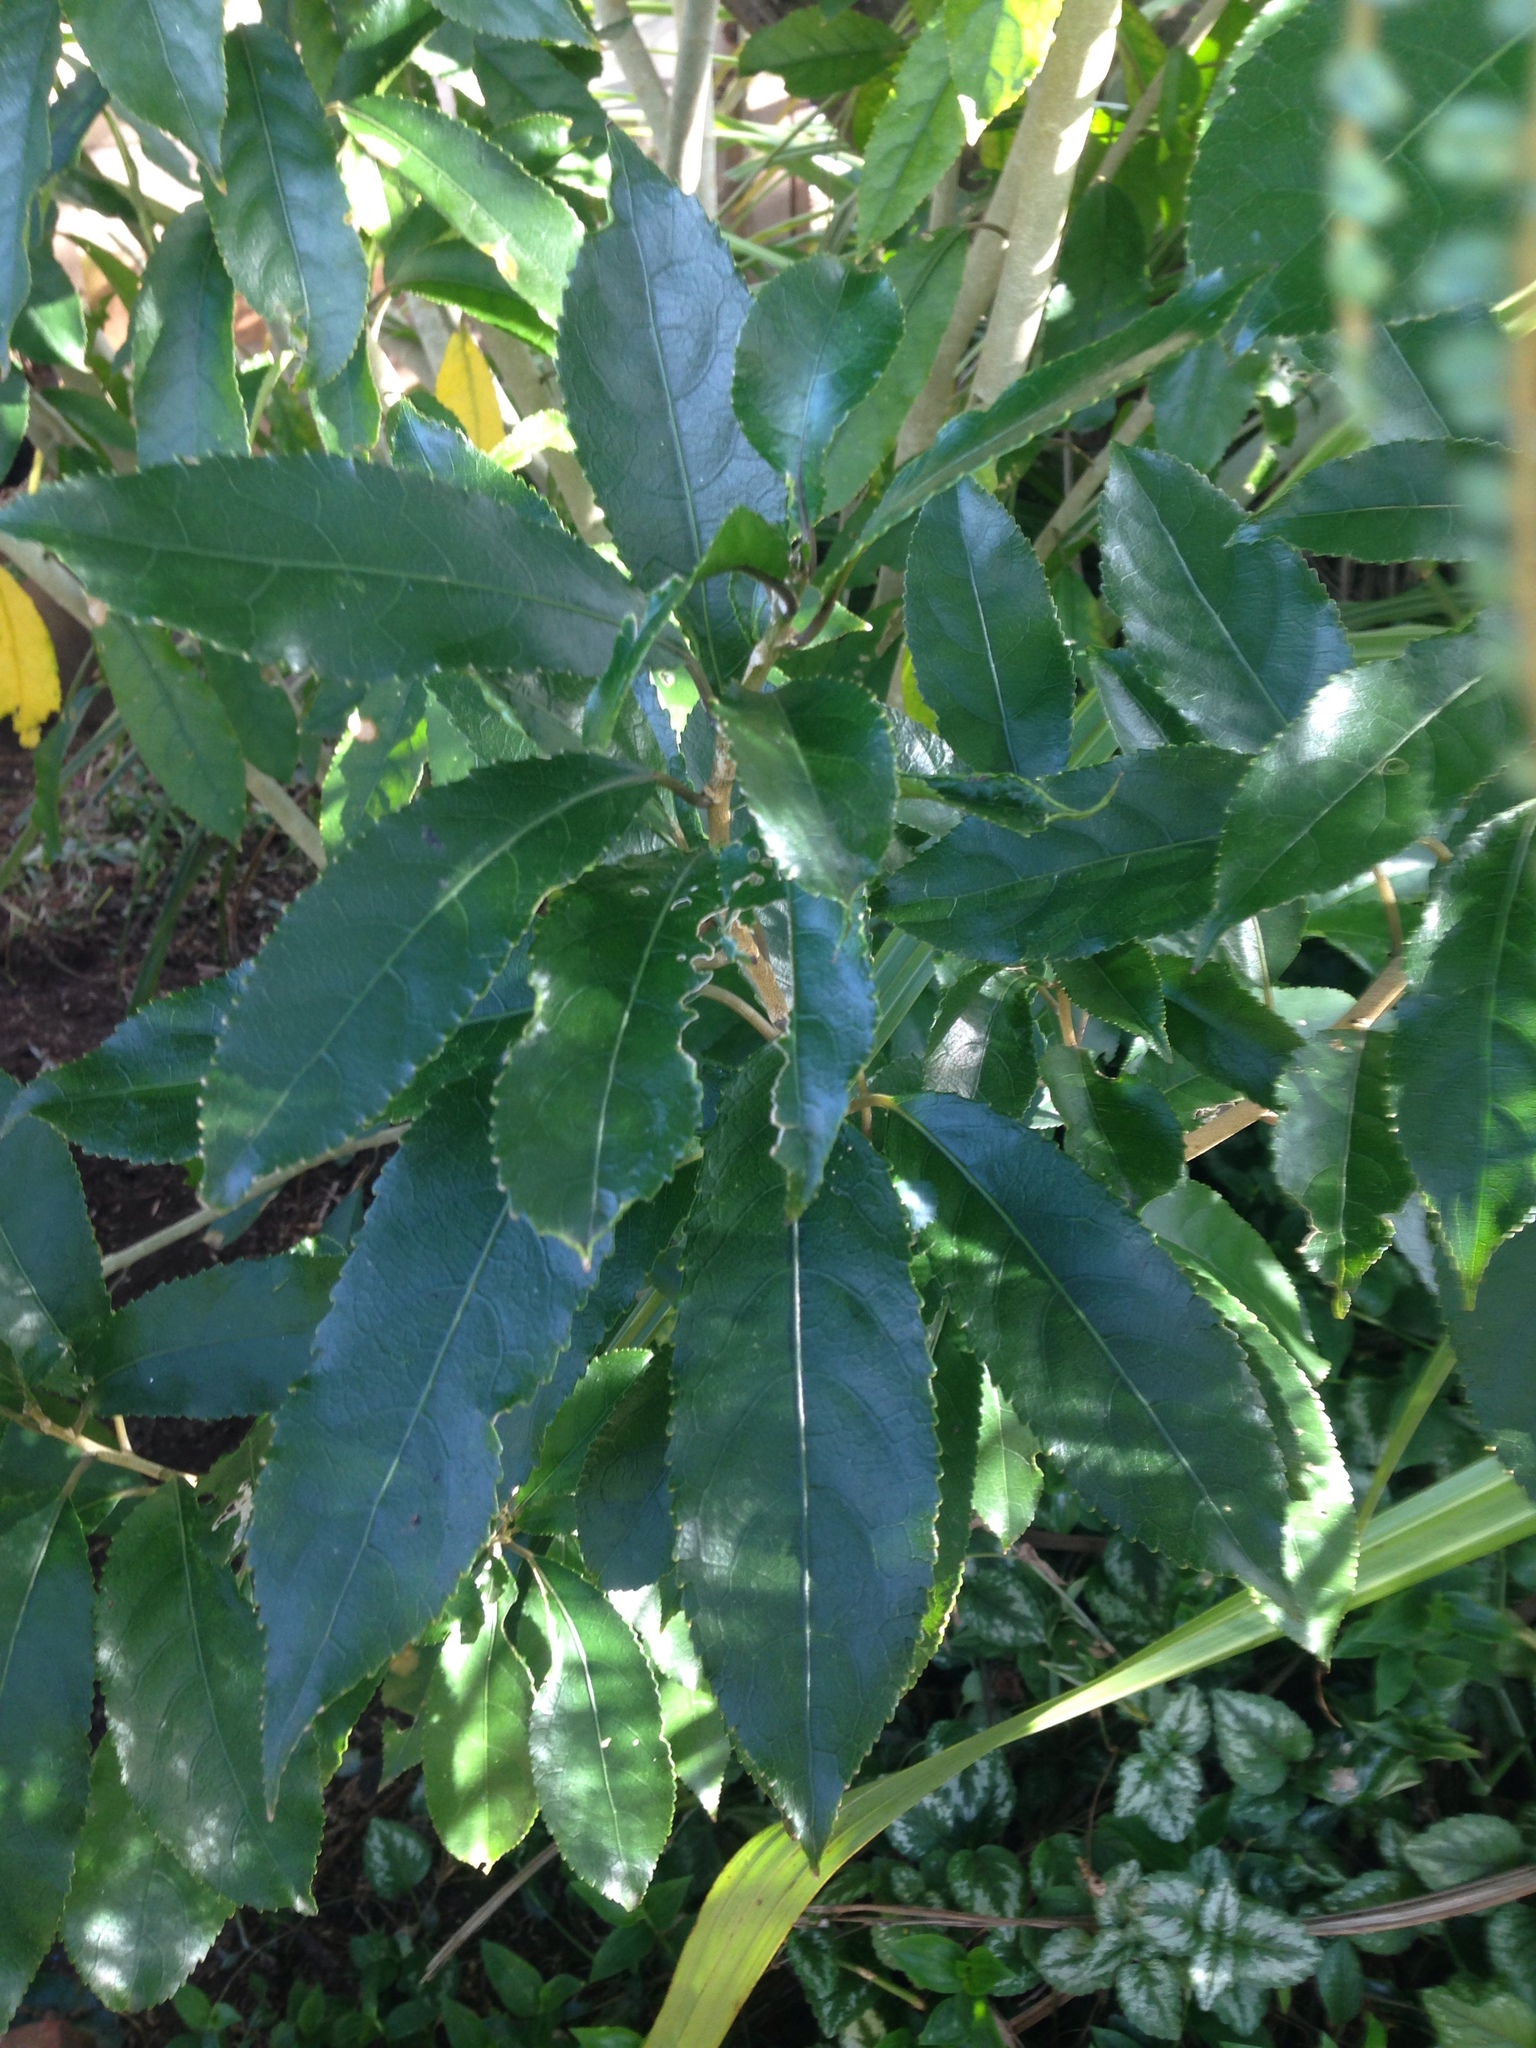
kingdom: Plantae
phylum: Tracheophyta
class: Magnoliopsida
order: Malpighiales
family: Violaceae
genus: Melicytus
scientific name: Melicytus ramiflorus
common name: Mahoe
